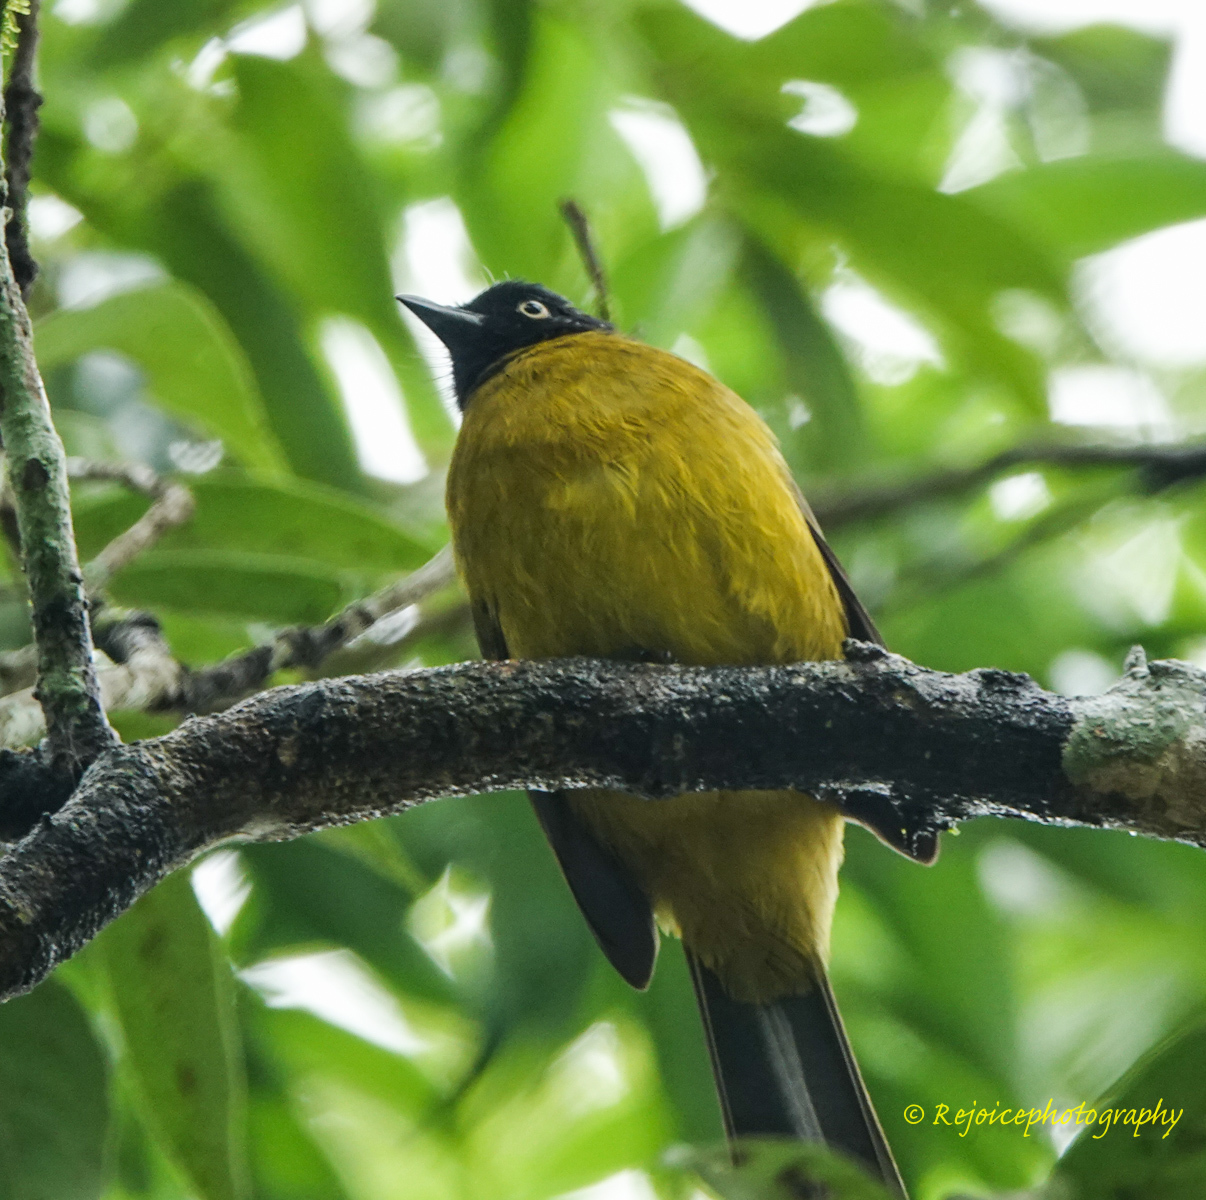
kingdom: Animalia
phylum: Chordata
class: Aves
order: Passeriformes
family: Pycnonotidae
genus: Pycnonotus
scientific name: Pycnonotus flaviventris
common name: Black-crested bulbul
